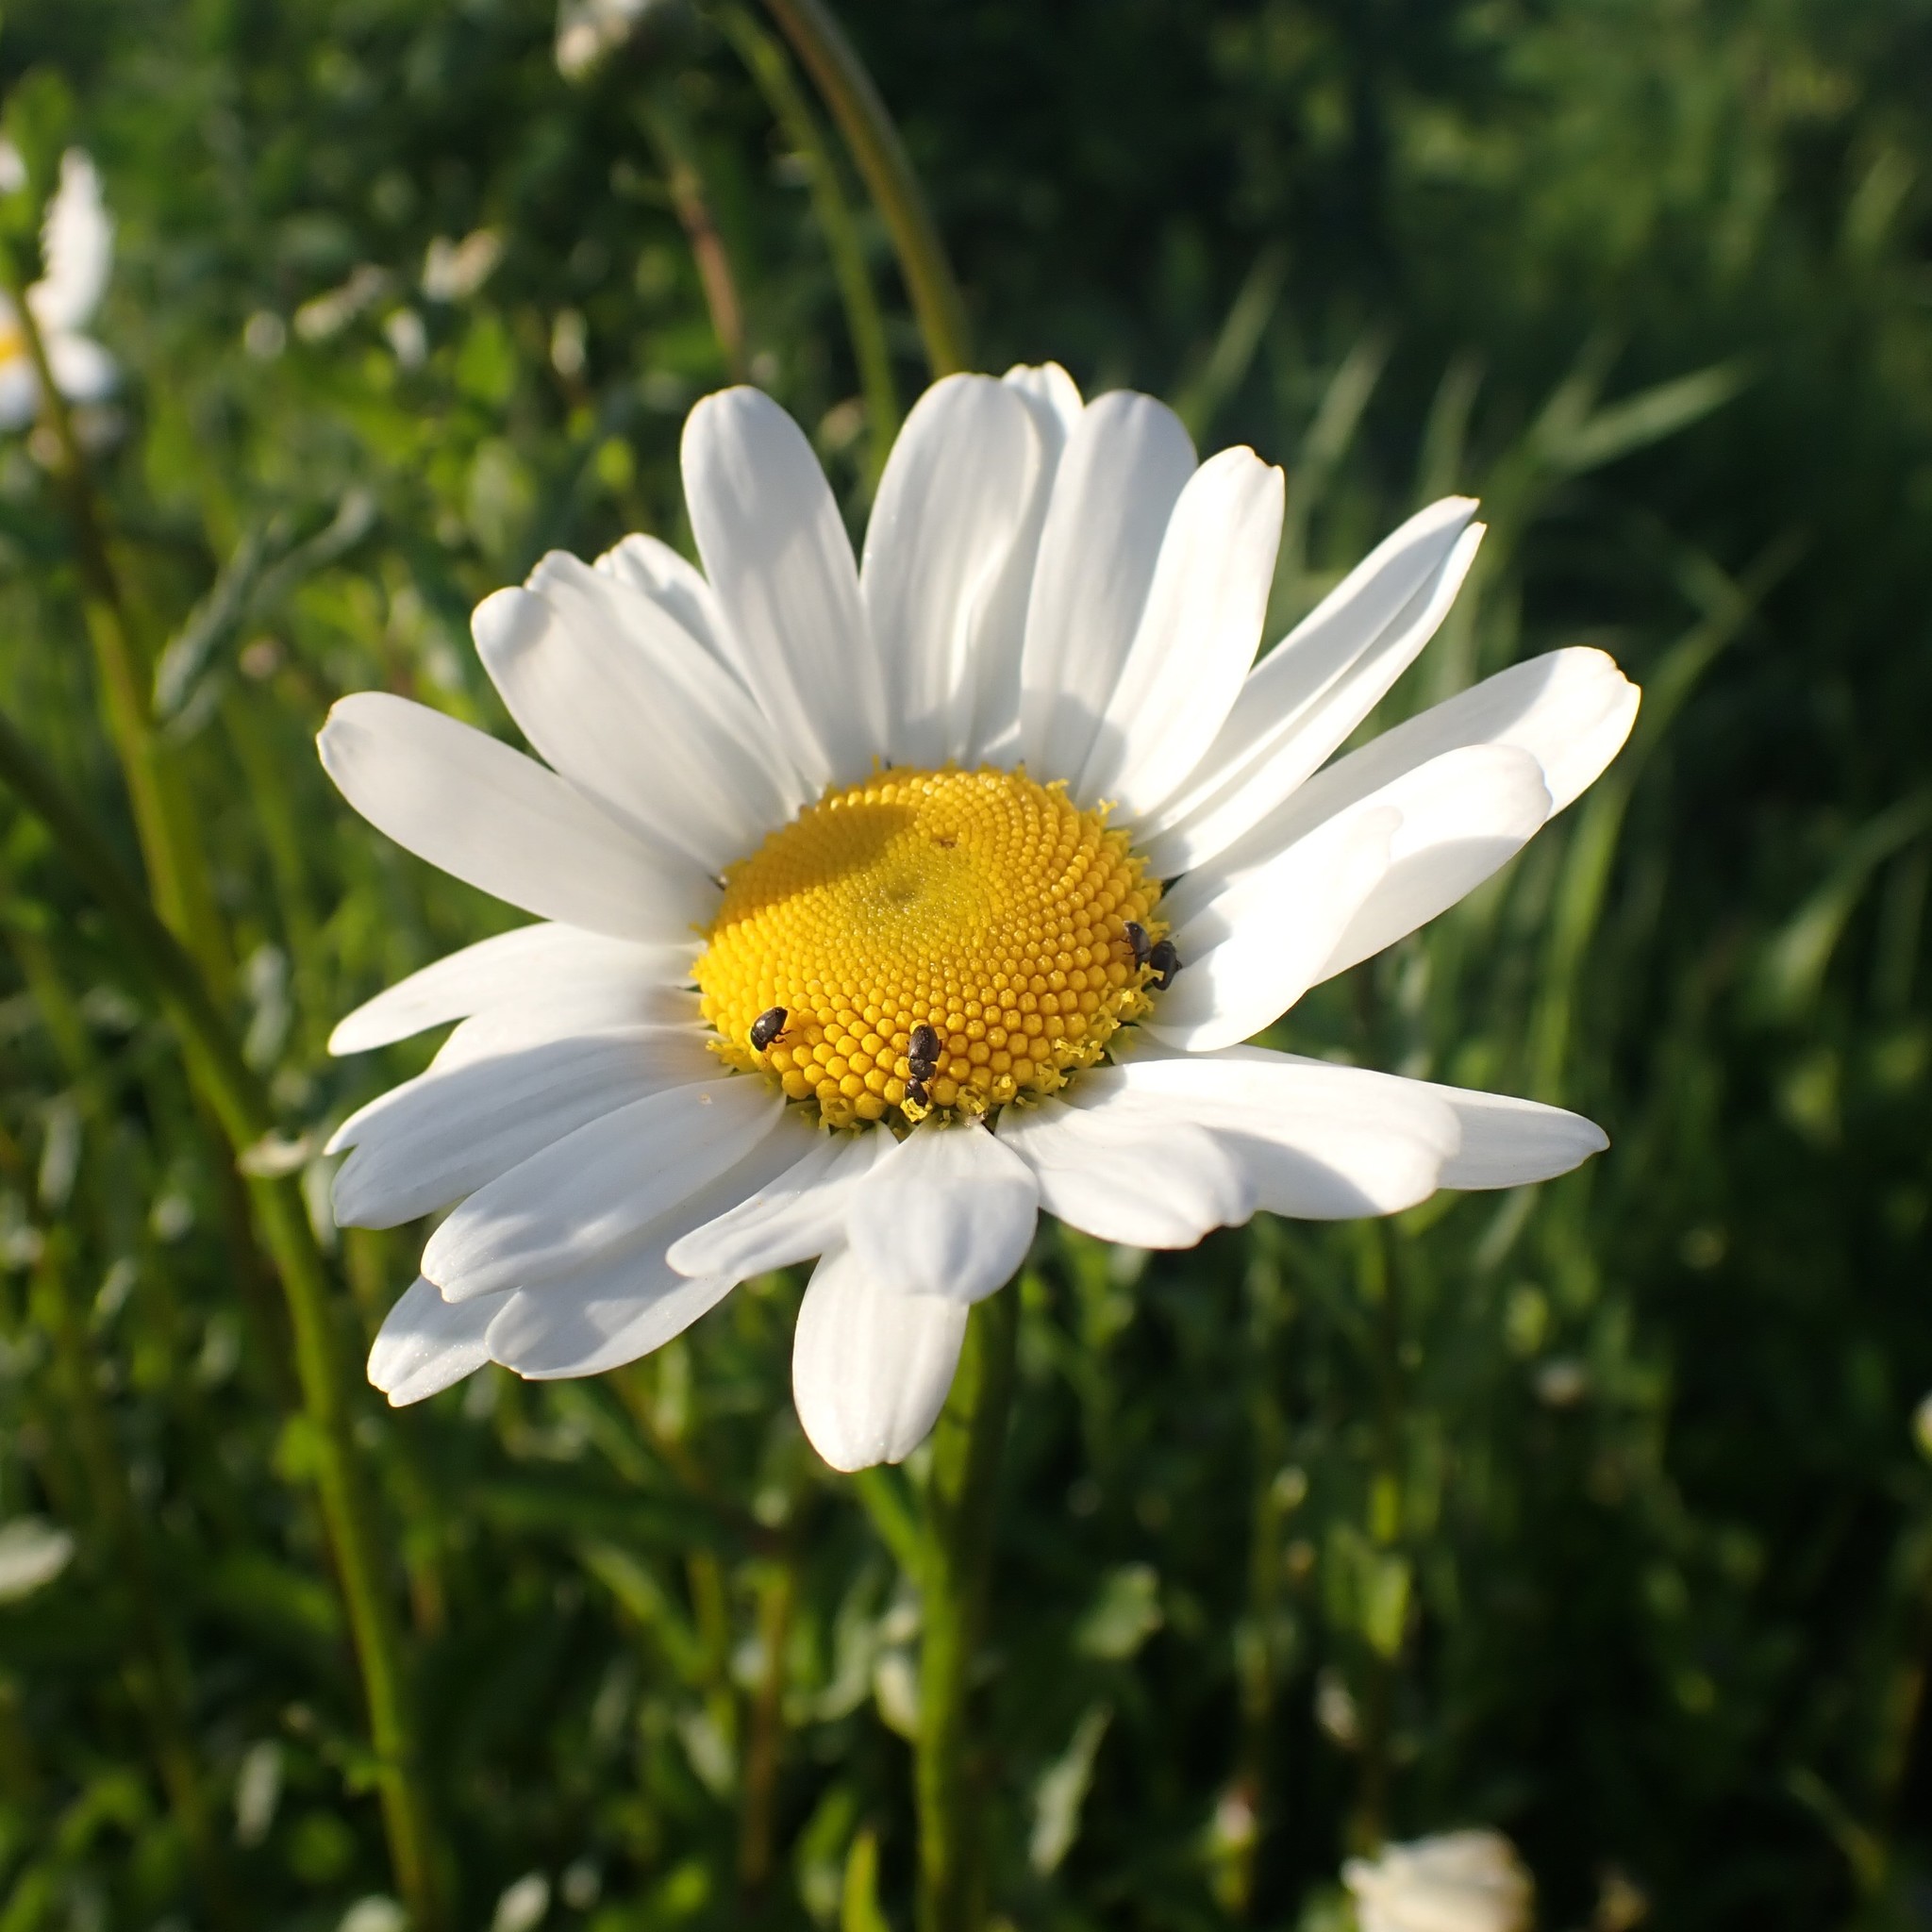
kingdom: Plantae
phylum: Tracheophyta
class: Magnoliopsida
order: Asterales
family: Asteraceae
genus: Leucanthemum
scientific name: Leucanthemum vulgare
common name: Oxeye daisy
